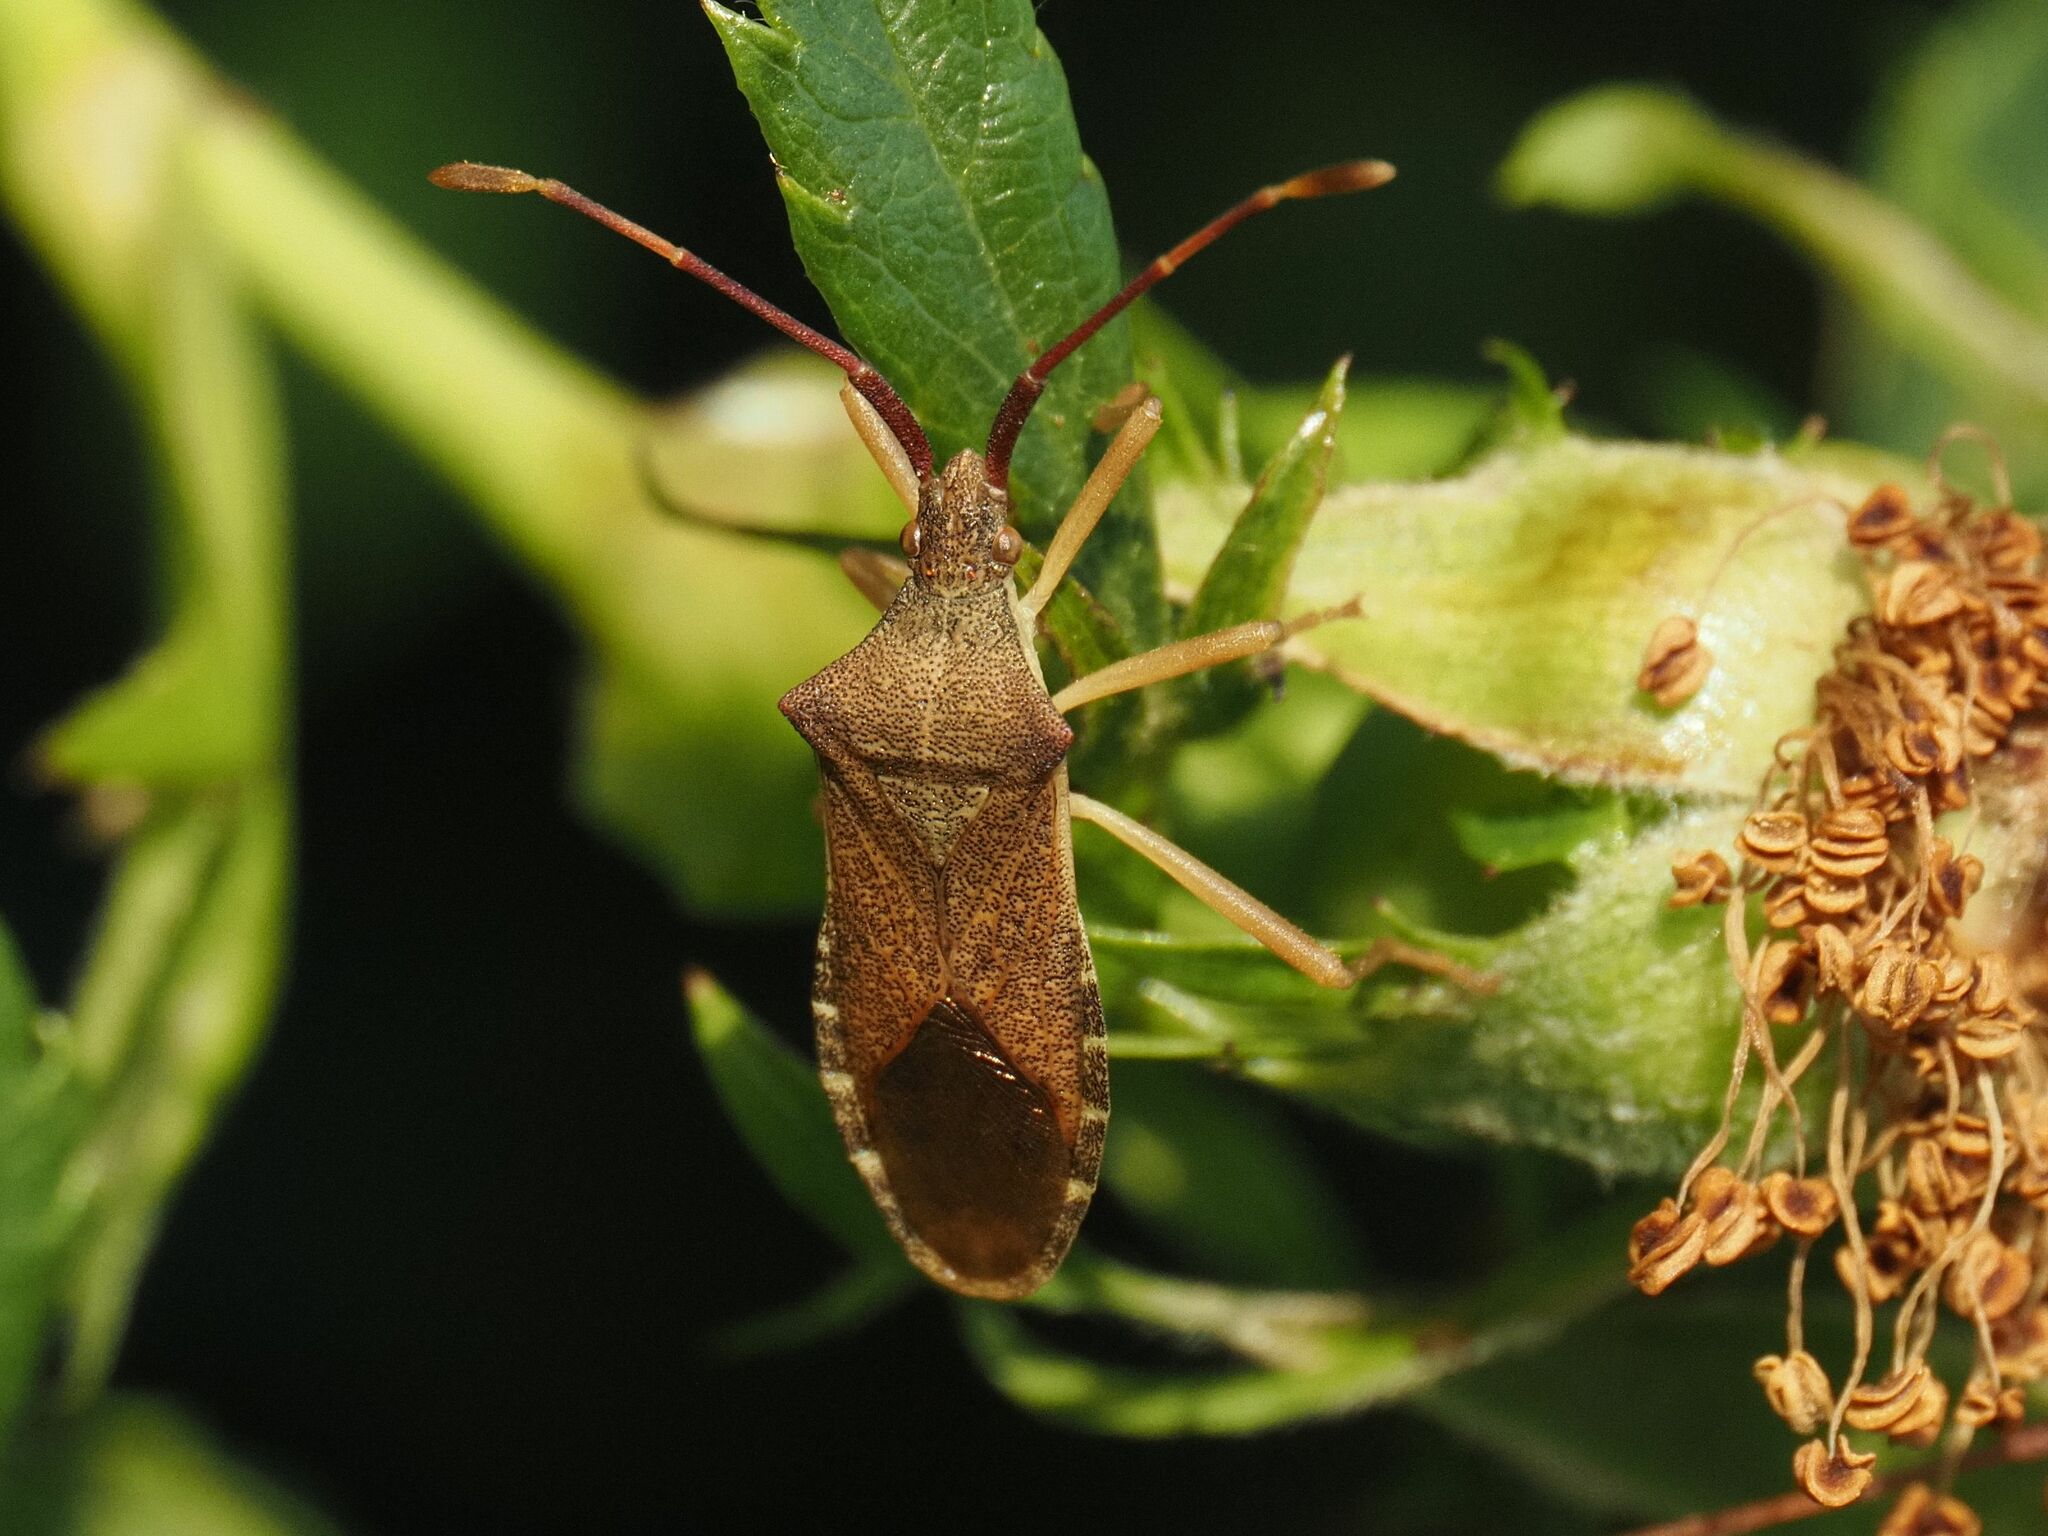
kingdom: Animalia
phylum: Arthropoda
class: Insecta
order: Hemiptera
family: Coreidae
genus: Gonocerus
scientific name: Gonocerus acuteangulatus
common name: Box bug
